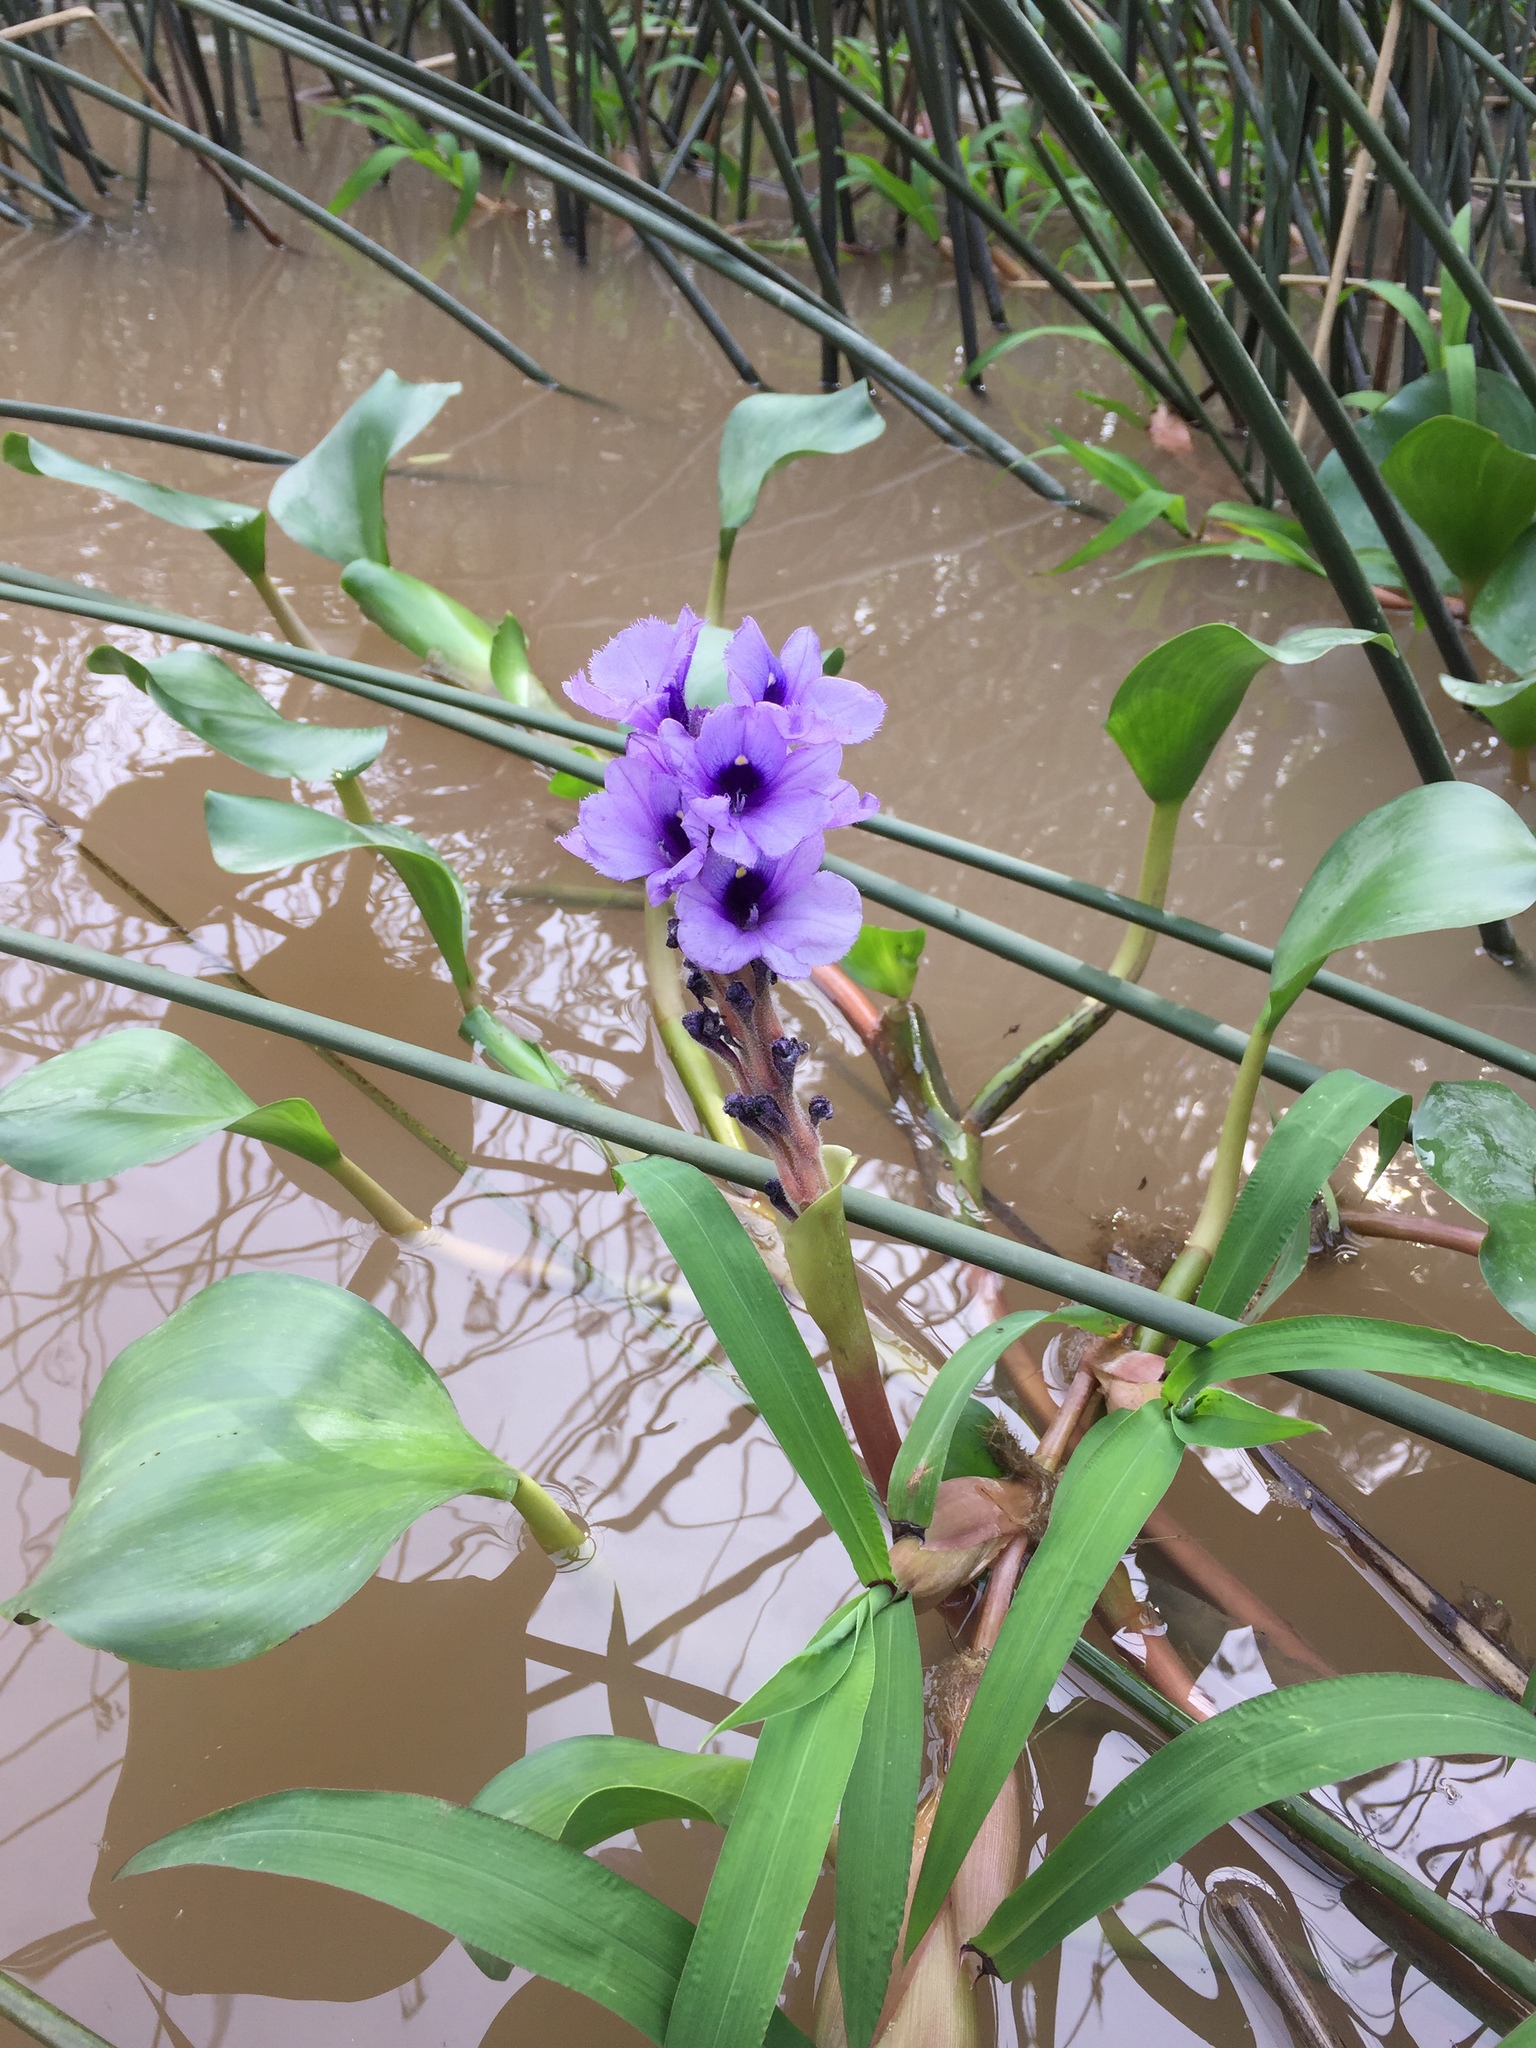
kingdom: Plantae
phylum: Tracheophyta
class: Liliopsida
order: Commelinales
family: Pontederiaceae
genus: Pontederia
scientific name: Pontederia azurea
